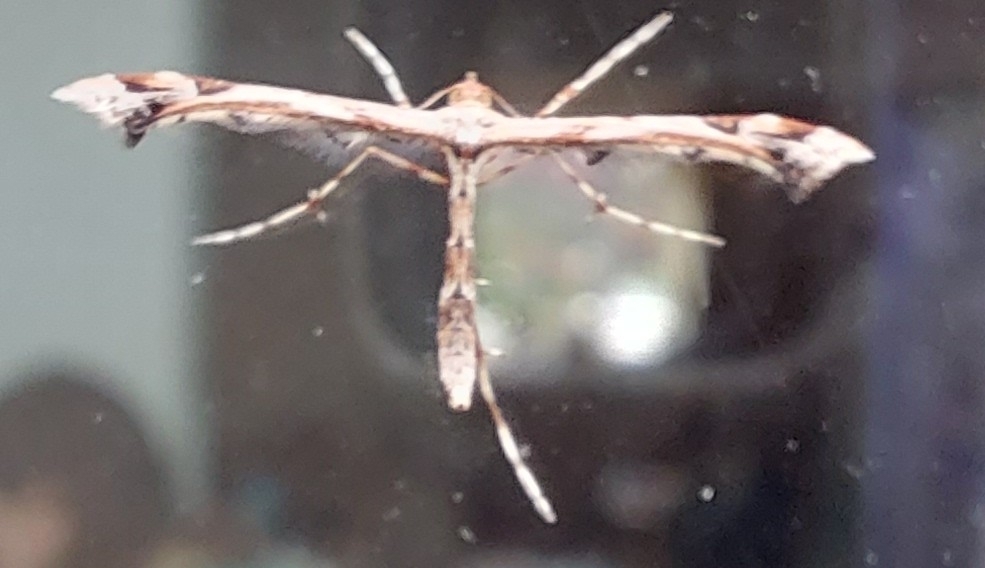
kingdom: Animalia
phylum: Arthropoda
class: Insecta
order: Lepidoptera
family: Pterophoridae
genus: Amblyptilia
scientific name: Amblyptilia acanthadactyla
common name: Beautiful plume
